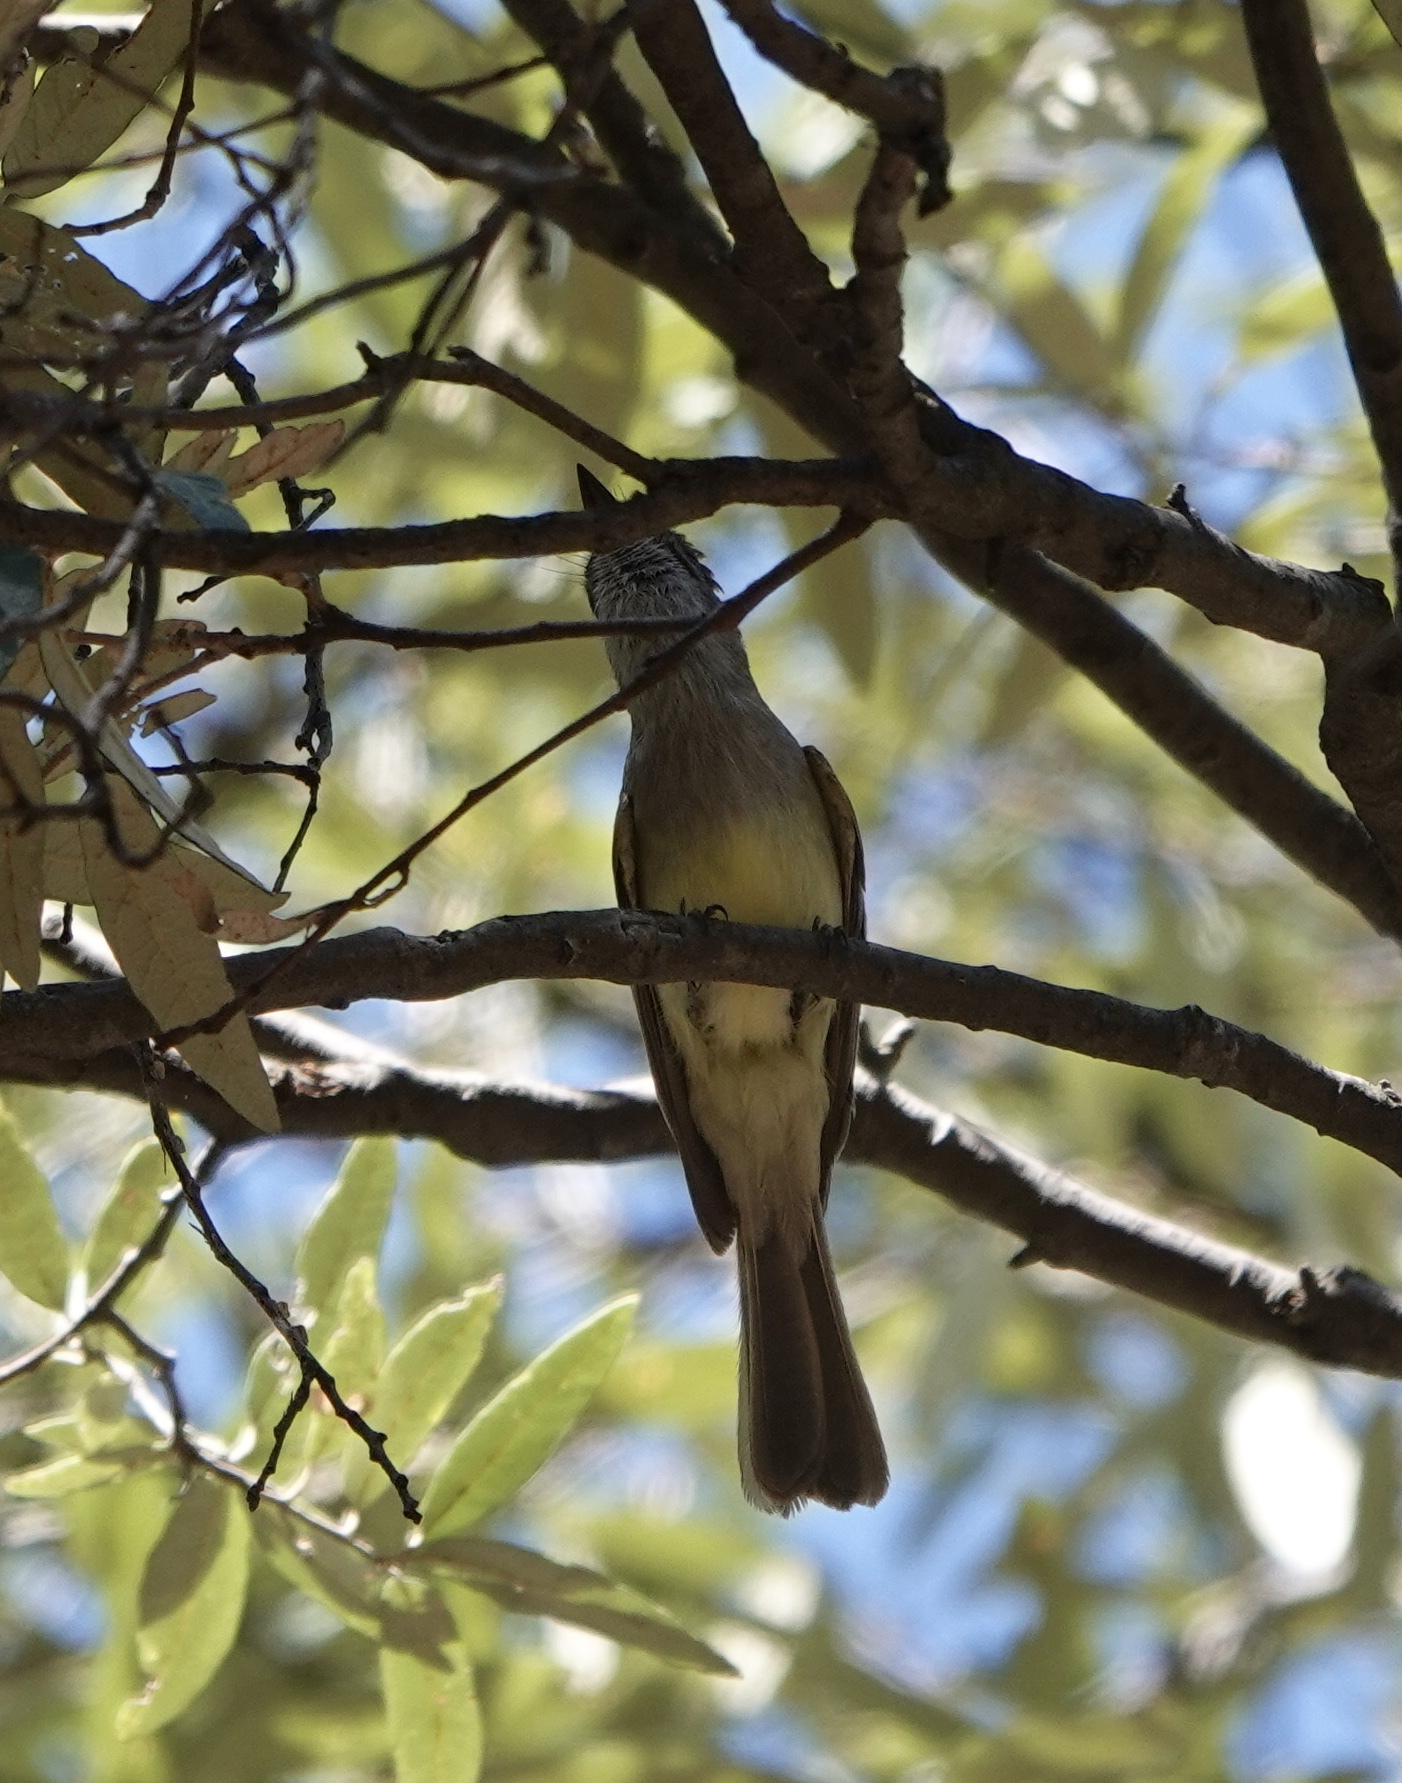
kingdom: Animalia
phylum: Chordata
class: Aves
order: Passeriformes
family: Tyrannidae
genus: Myiarchus
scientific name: Myiarchus tuberculifer
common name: Dusky-capped flycatcher
